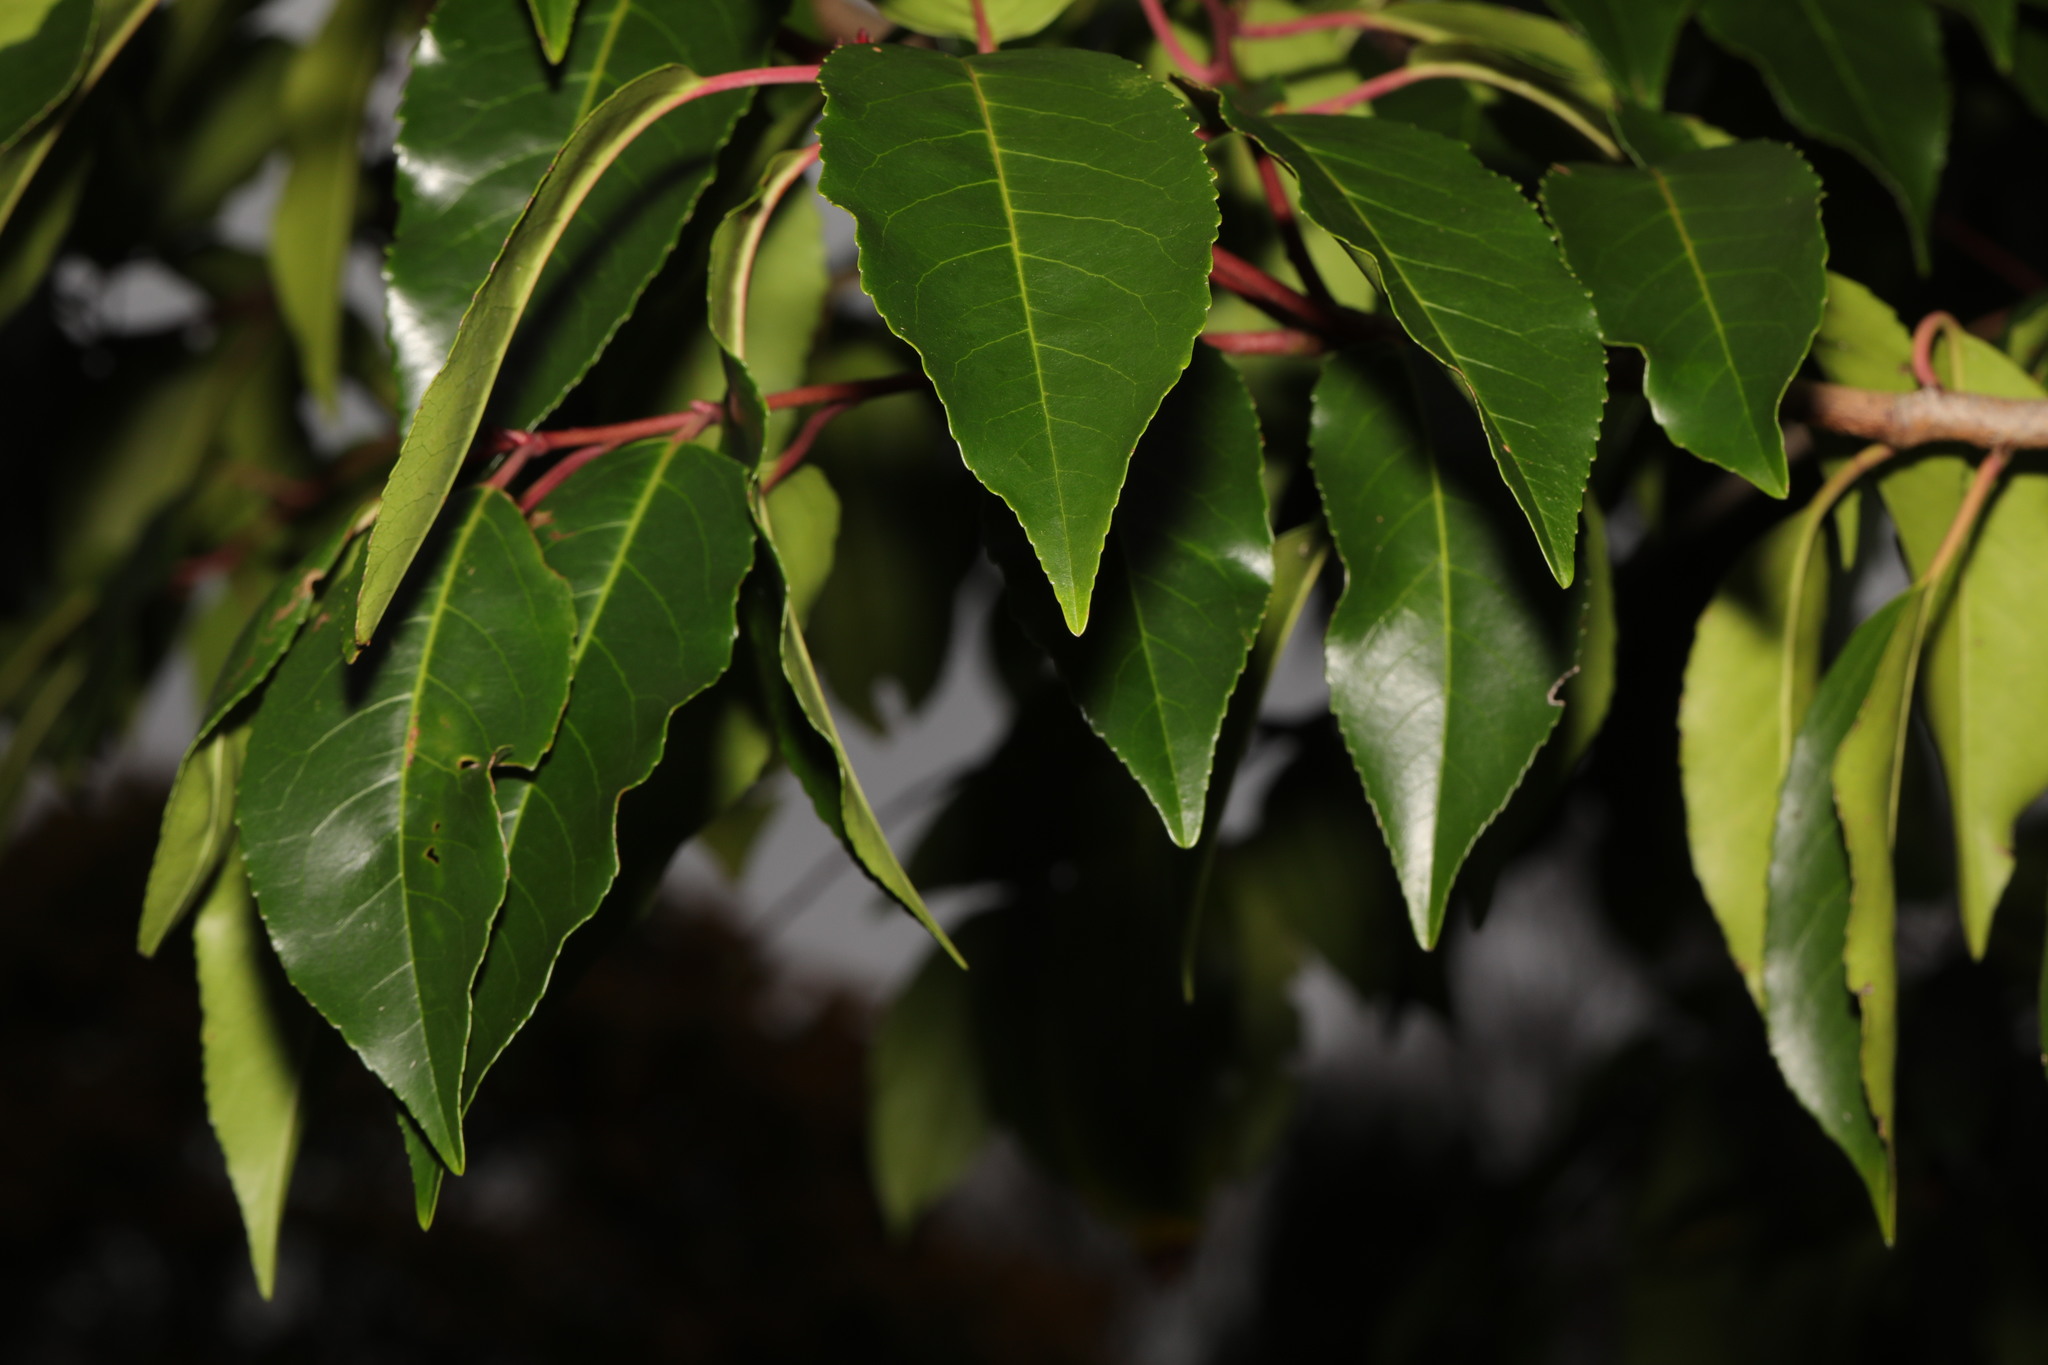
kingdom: Plantae
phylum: Tracheophyta
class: Magnoliopsida
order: Rosales
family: Rosaceae
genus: Prunus
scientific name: Prunus lusitanica
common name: Portugal laurel
